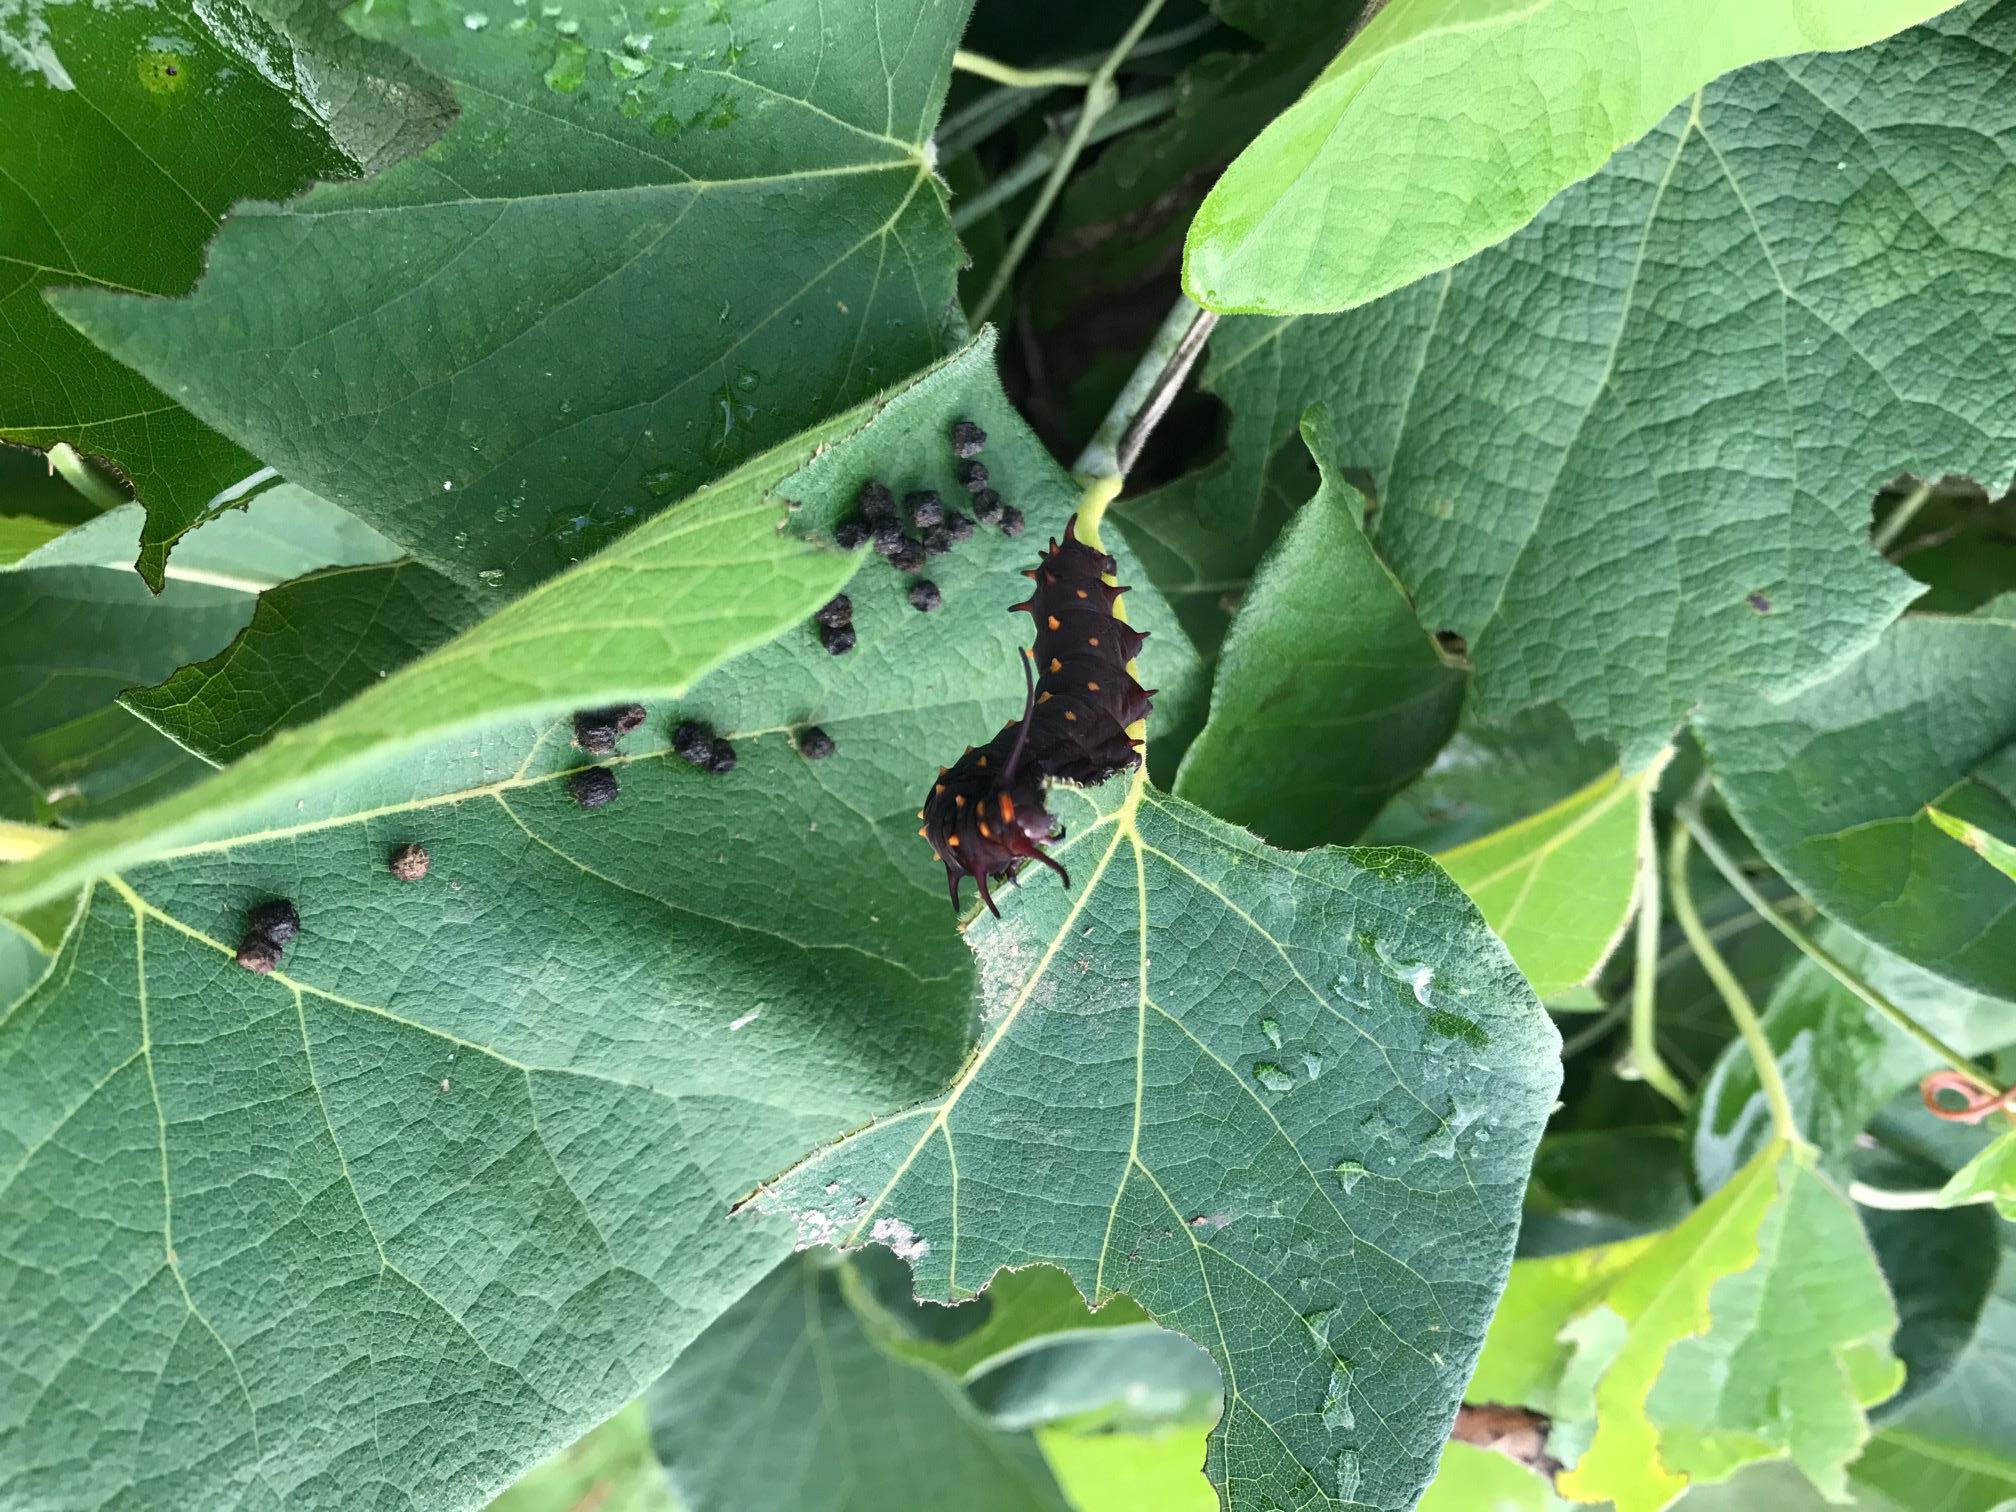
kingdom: Animalia
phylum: Arthropoda
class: Insecta
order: Lepidoptera
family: Papilionidae
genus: Battus
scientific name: Battus philenor
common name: Pipevine swallowtail
